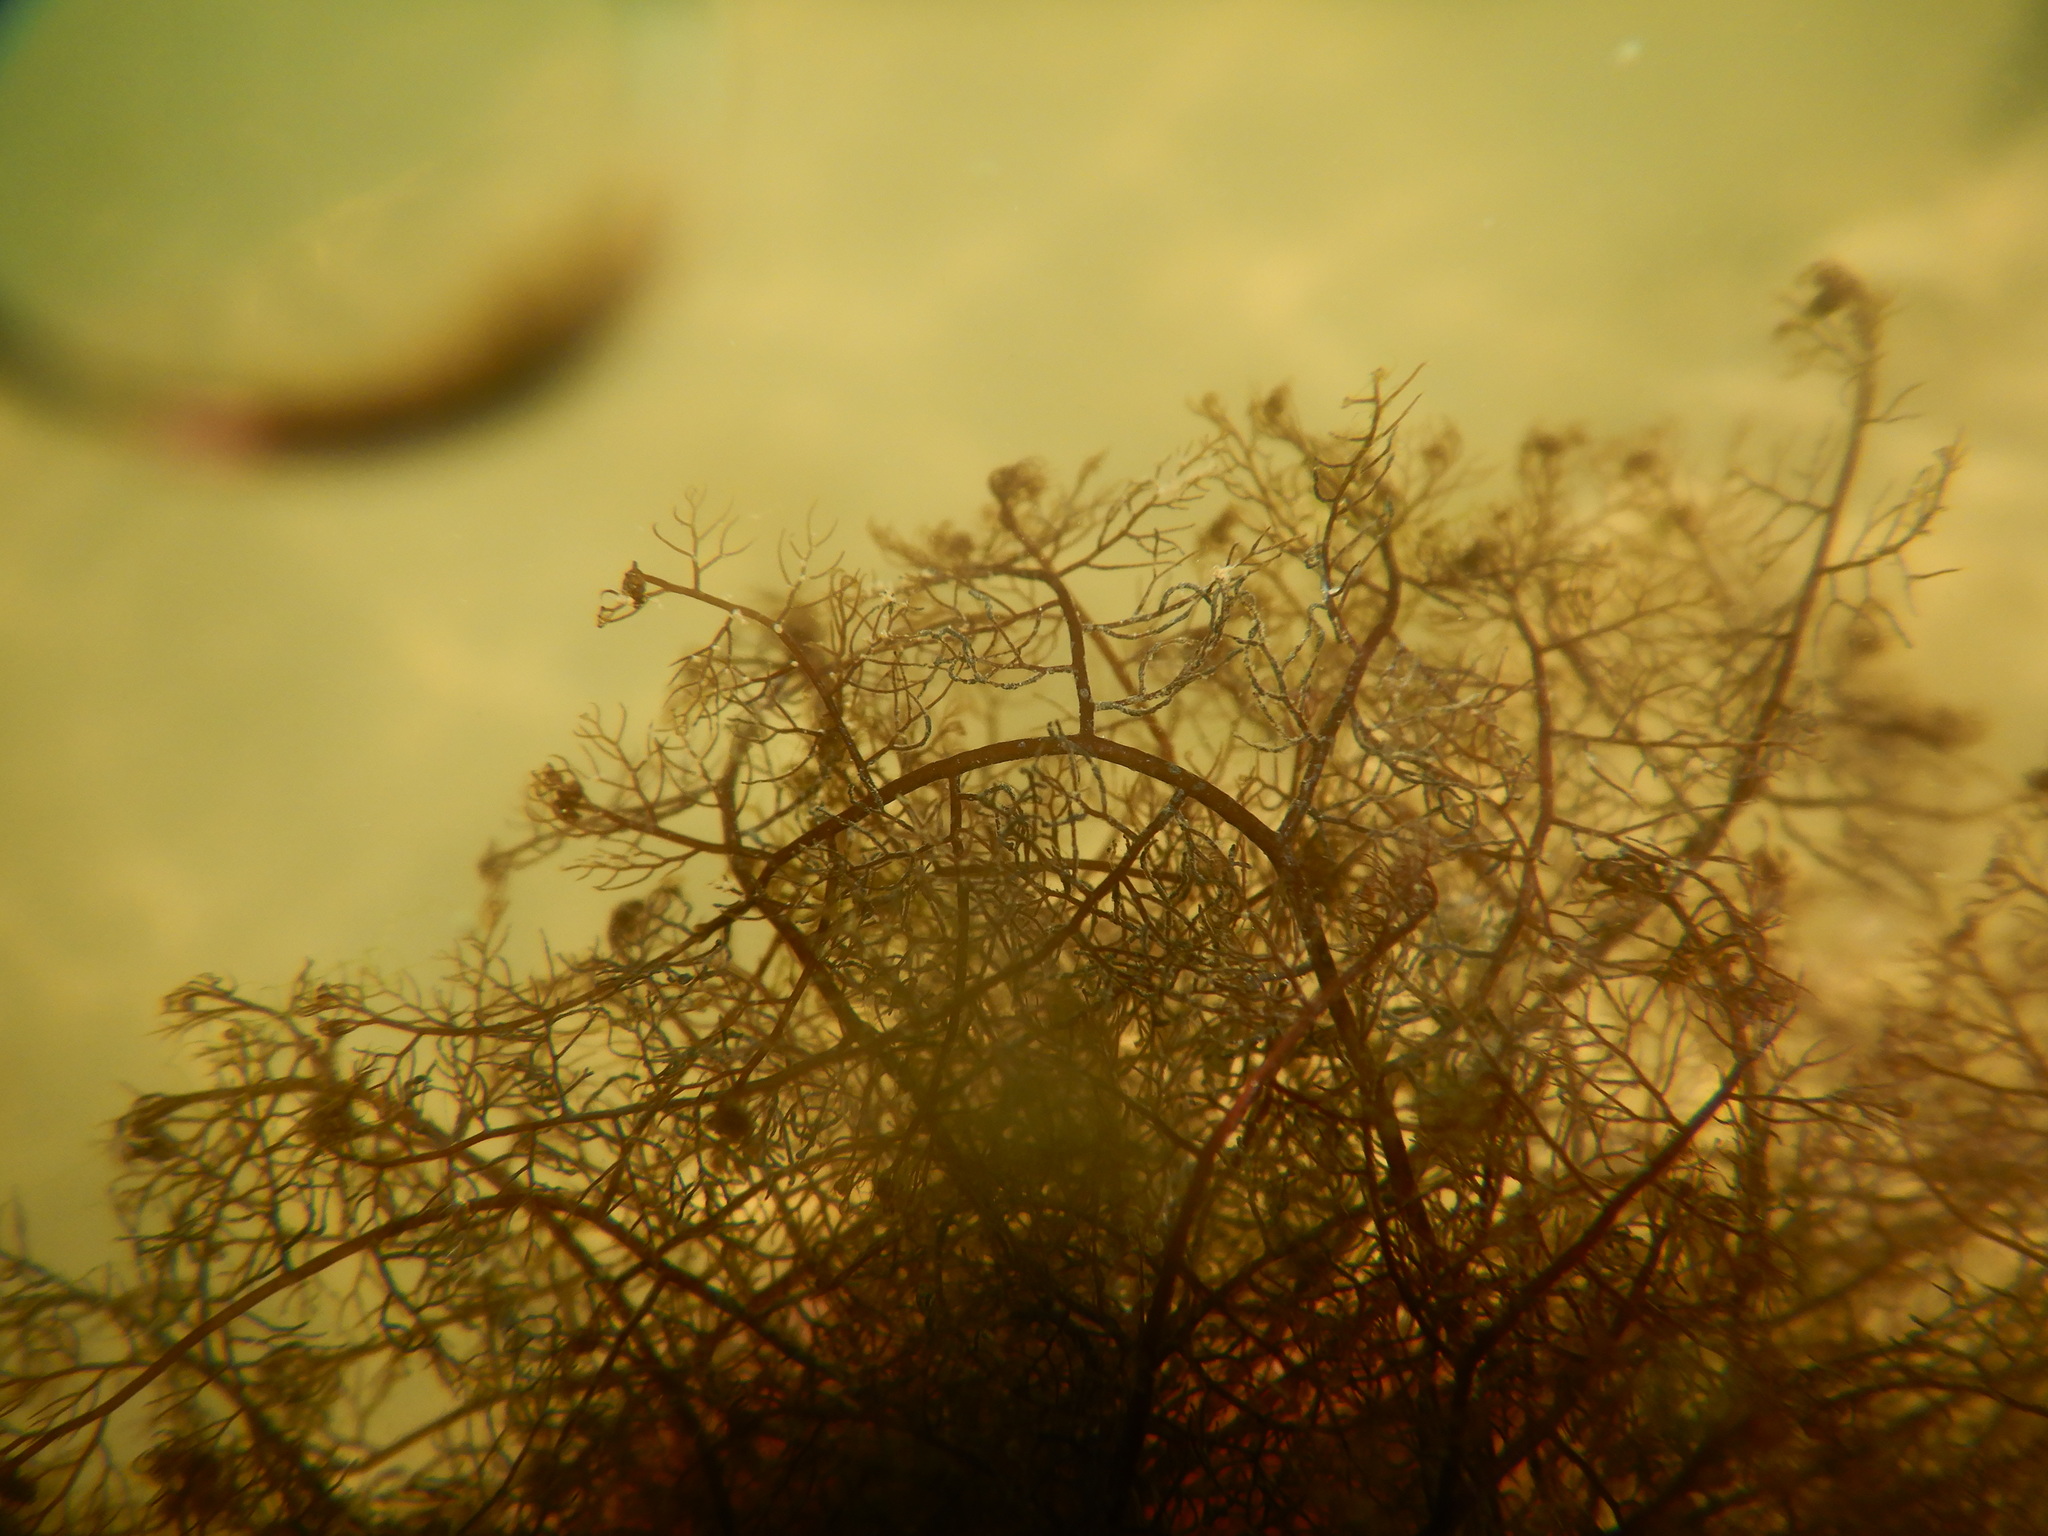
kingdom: Plantae
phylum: Rhodophyta
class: Florideophyceae
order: Ceramiales
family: Rhodomelaceae
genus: Bostrychia
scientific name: Bostrychia montagnei
